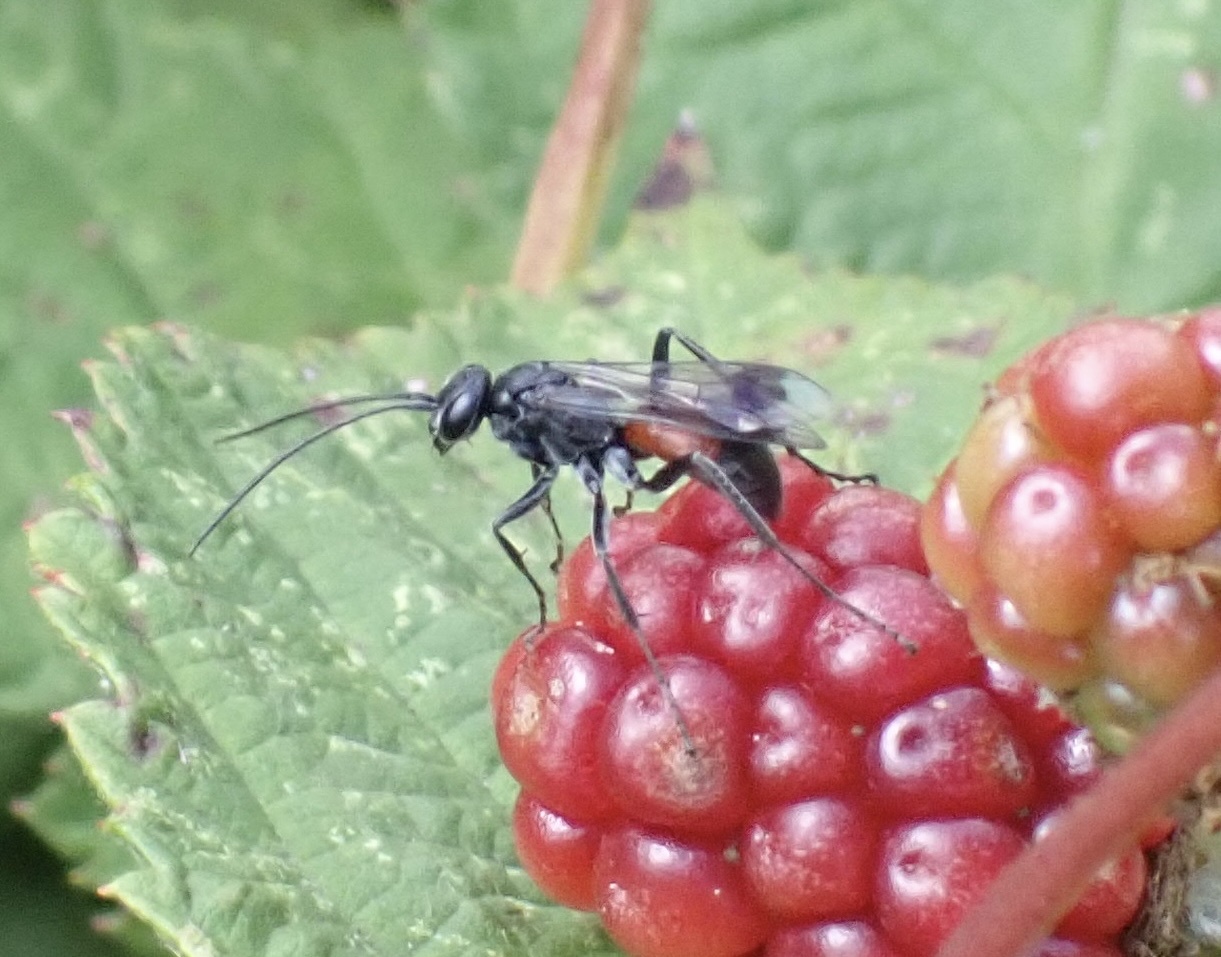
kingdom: Animalia
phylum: Arthropoda
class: Insecta
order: Hymenoptera
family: Pompilidae
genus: Caliadurgus
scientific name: Caliadurgus fasciatellus
